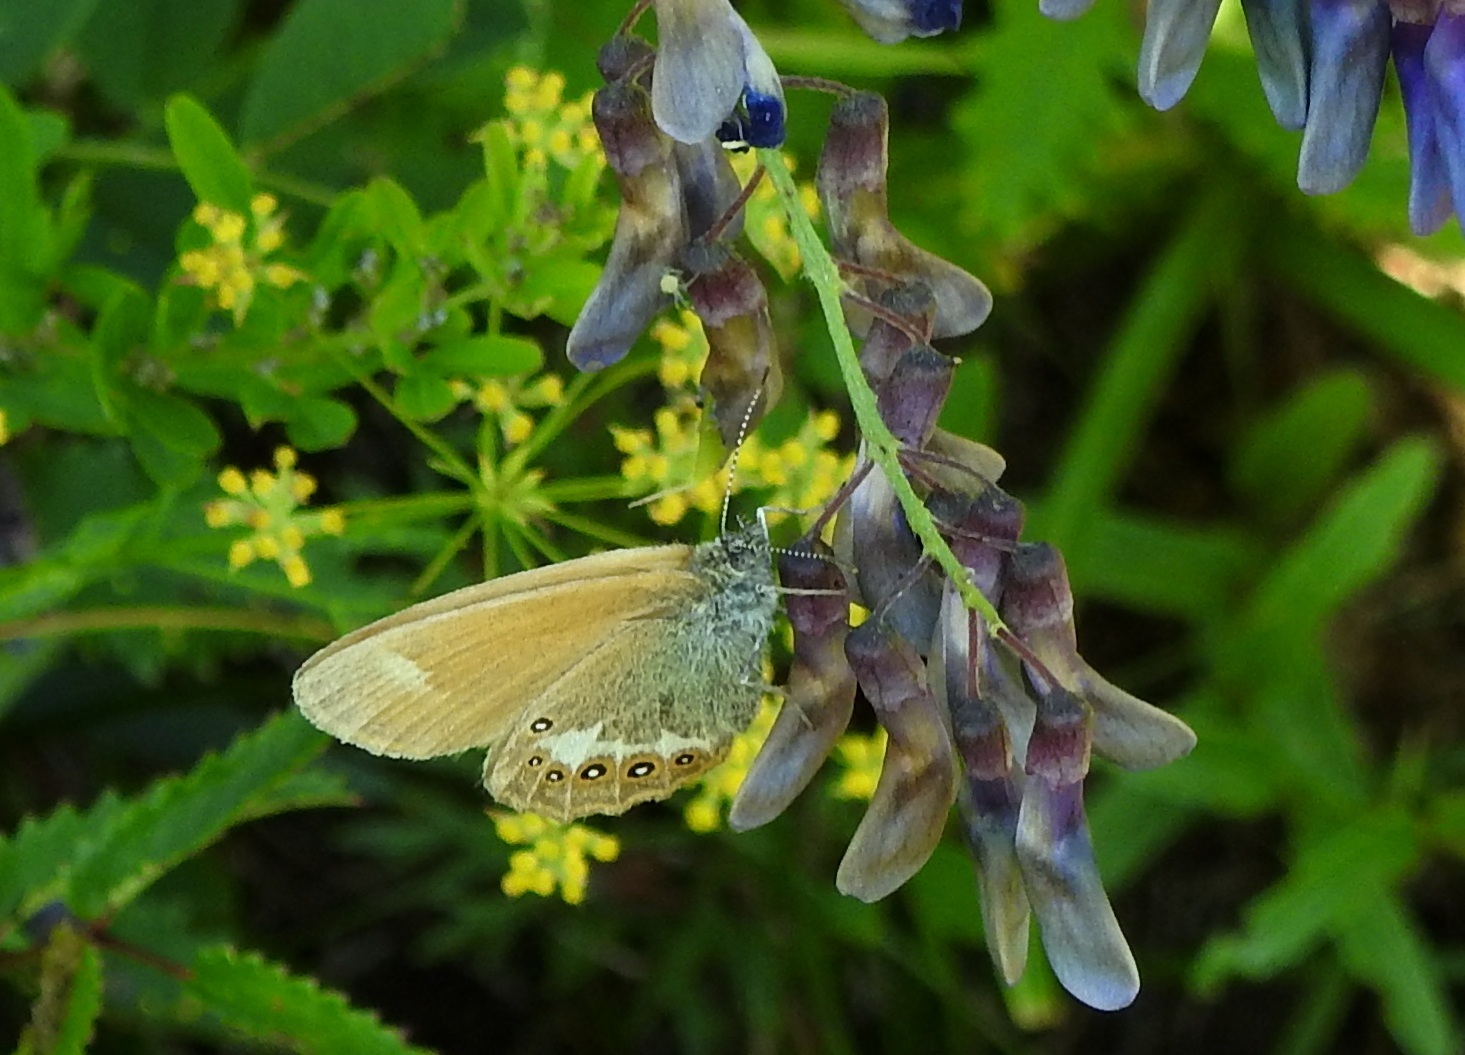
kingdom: Animalia
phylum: Arthropoda
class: Insecta
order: Lepidoptera
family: Nymphalidae
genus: Coenonympha
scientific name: Coenonympha iphis
